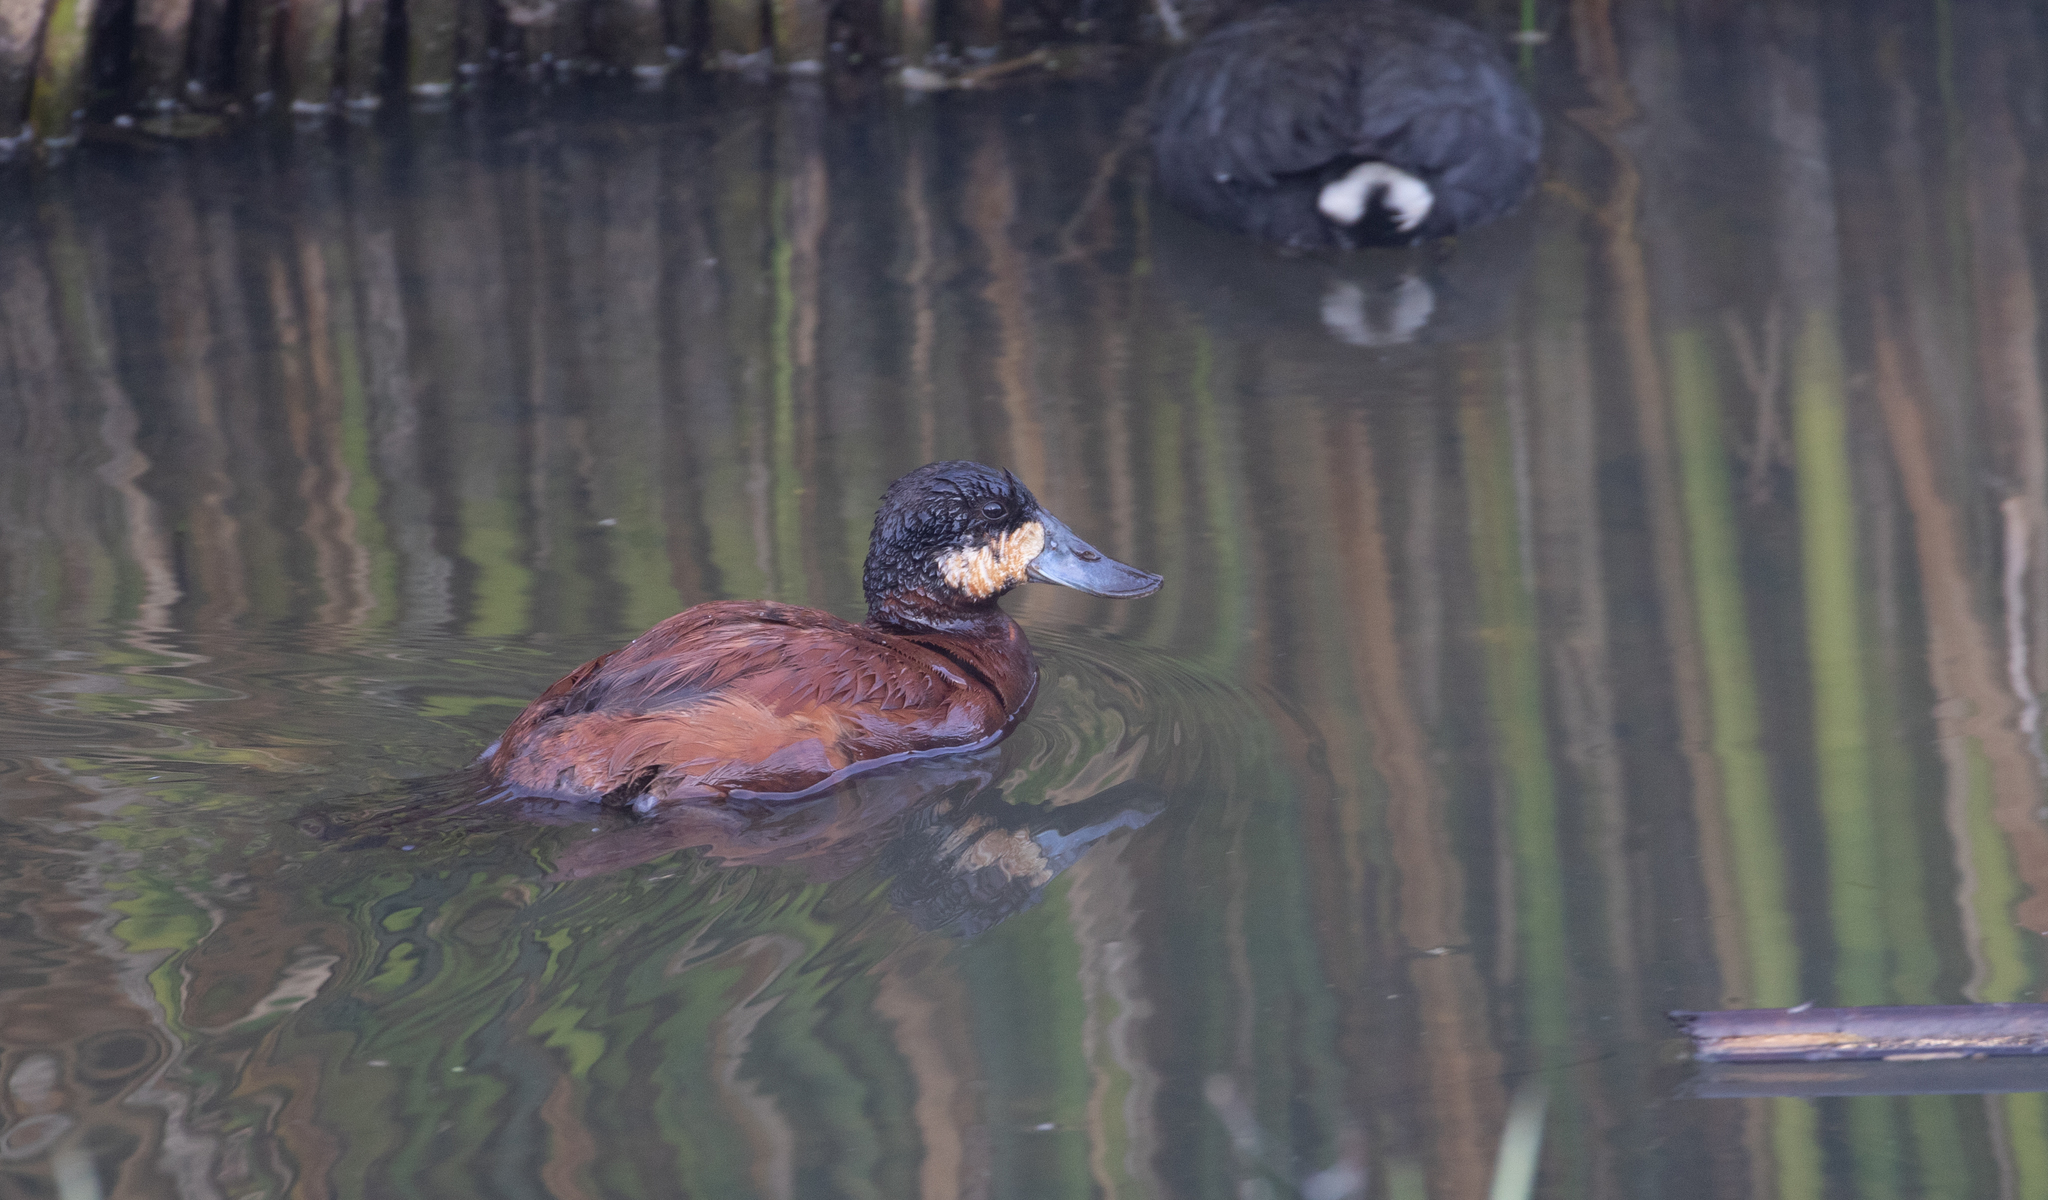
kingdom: Animalia
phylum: Chordata
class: Aves
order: Anseriformes
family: Anatidae
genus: Oxyura
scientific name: Oxyura ferruginea
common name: Andean duck
